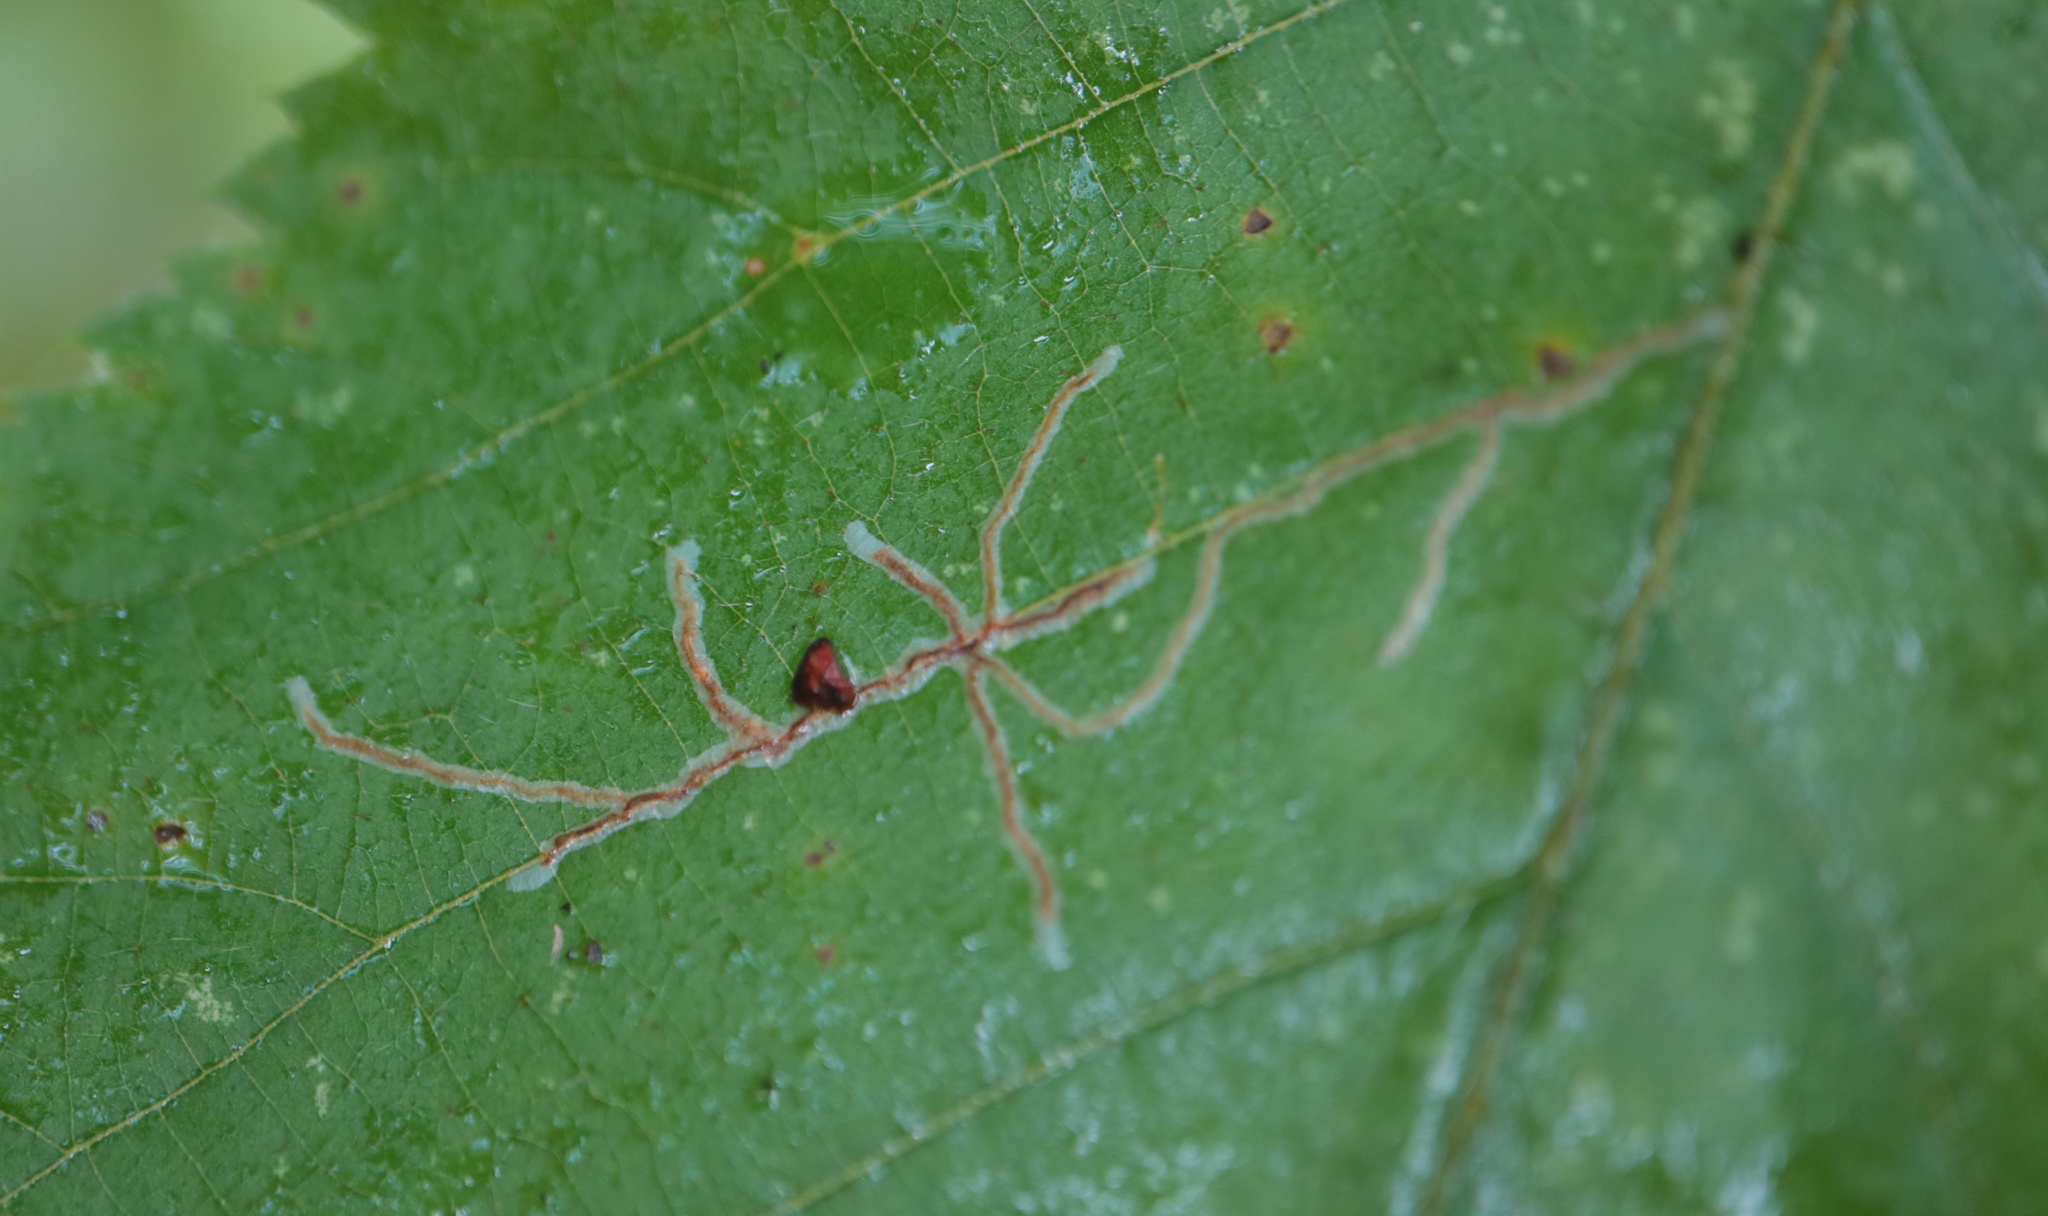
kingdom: Animalia
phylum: Arthropoda
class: Insecta
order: Lepidoptera
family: Gracillariidae
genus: Caloptilia
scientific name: Caloptilia ostryaeella
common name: Ironwood leafcone moth
